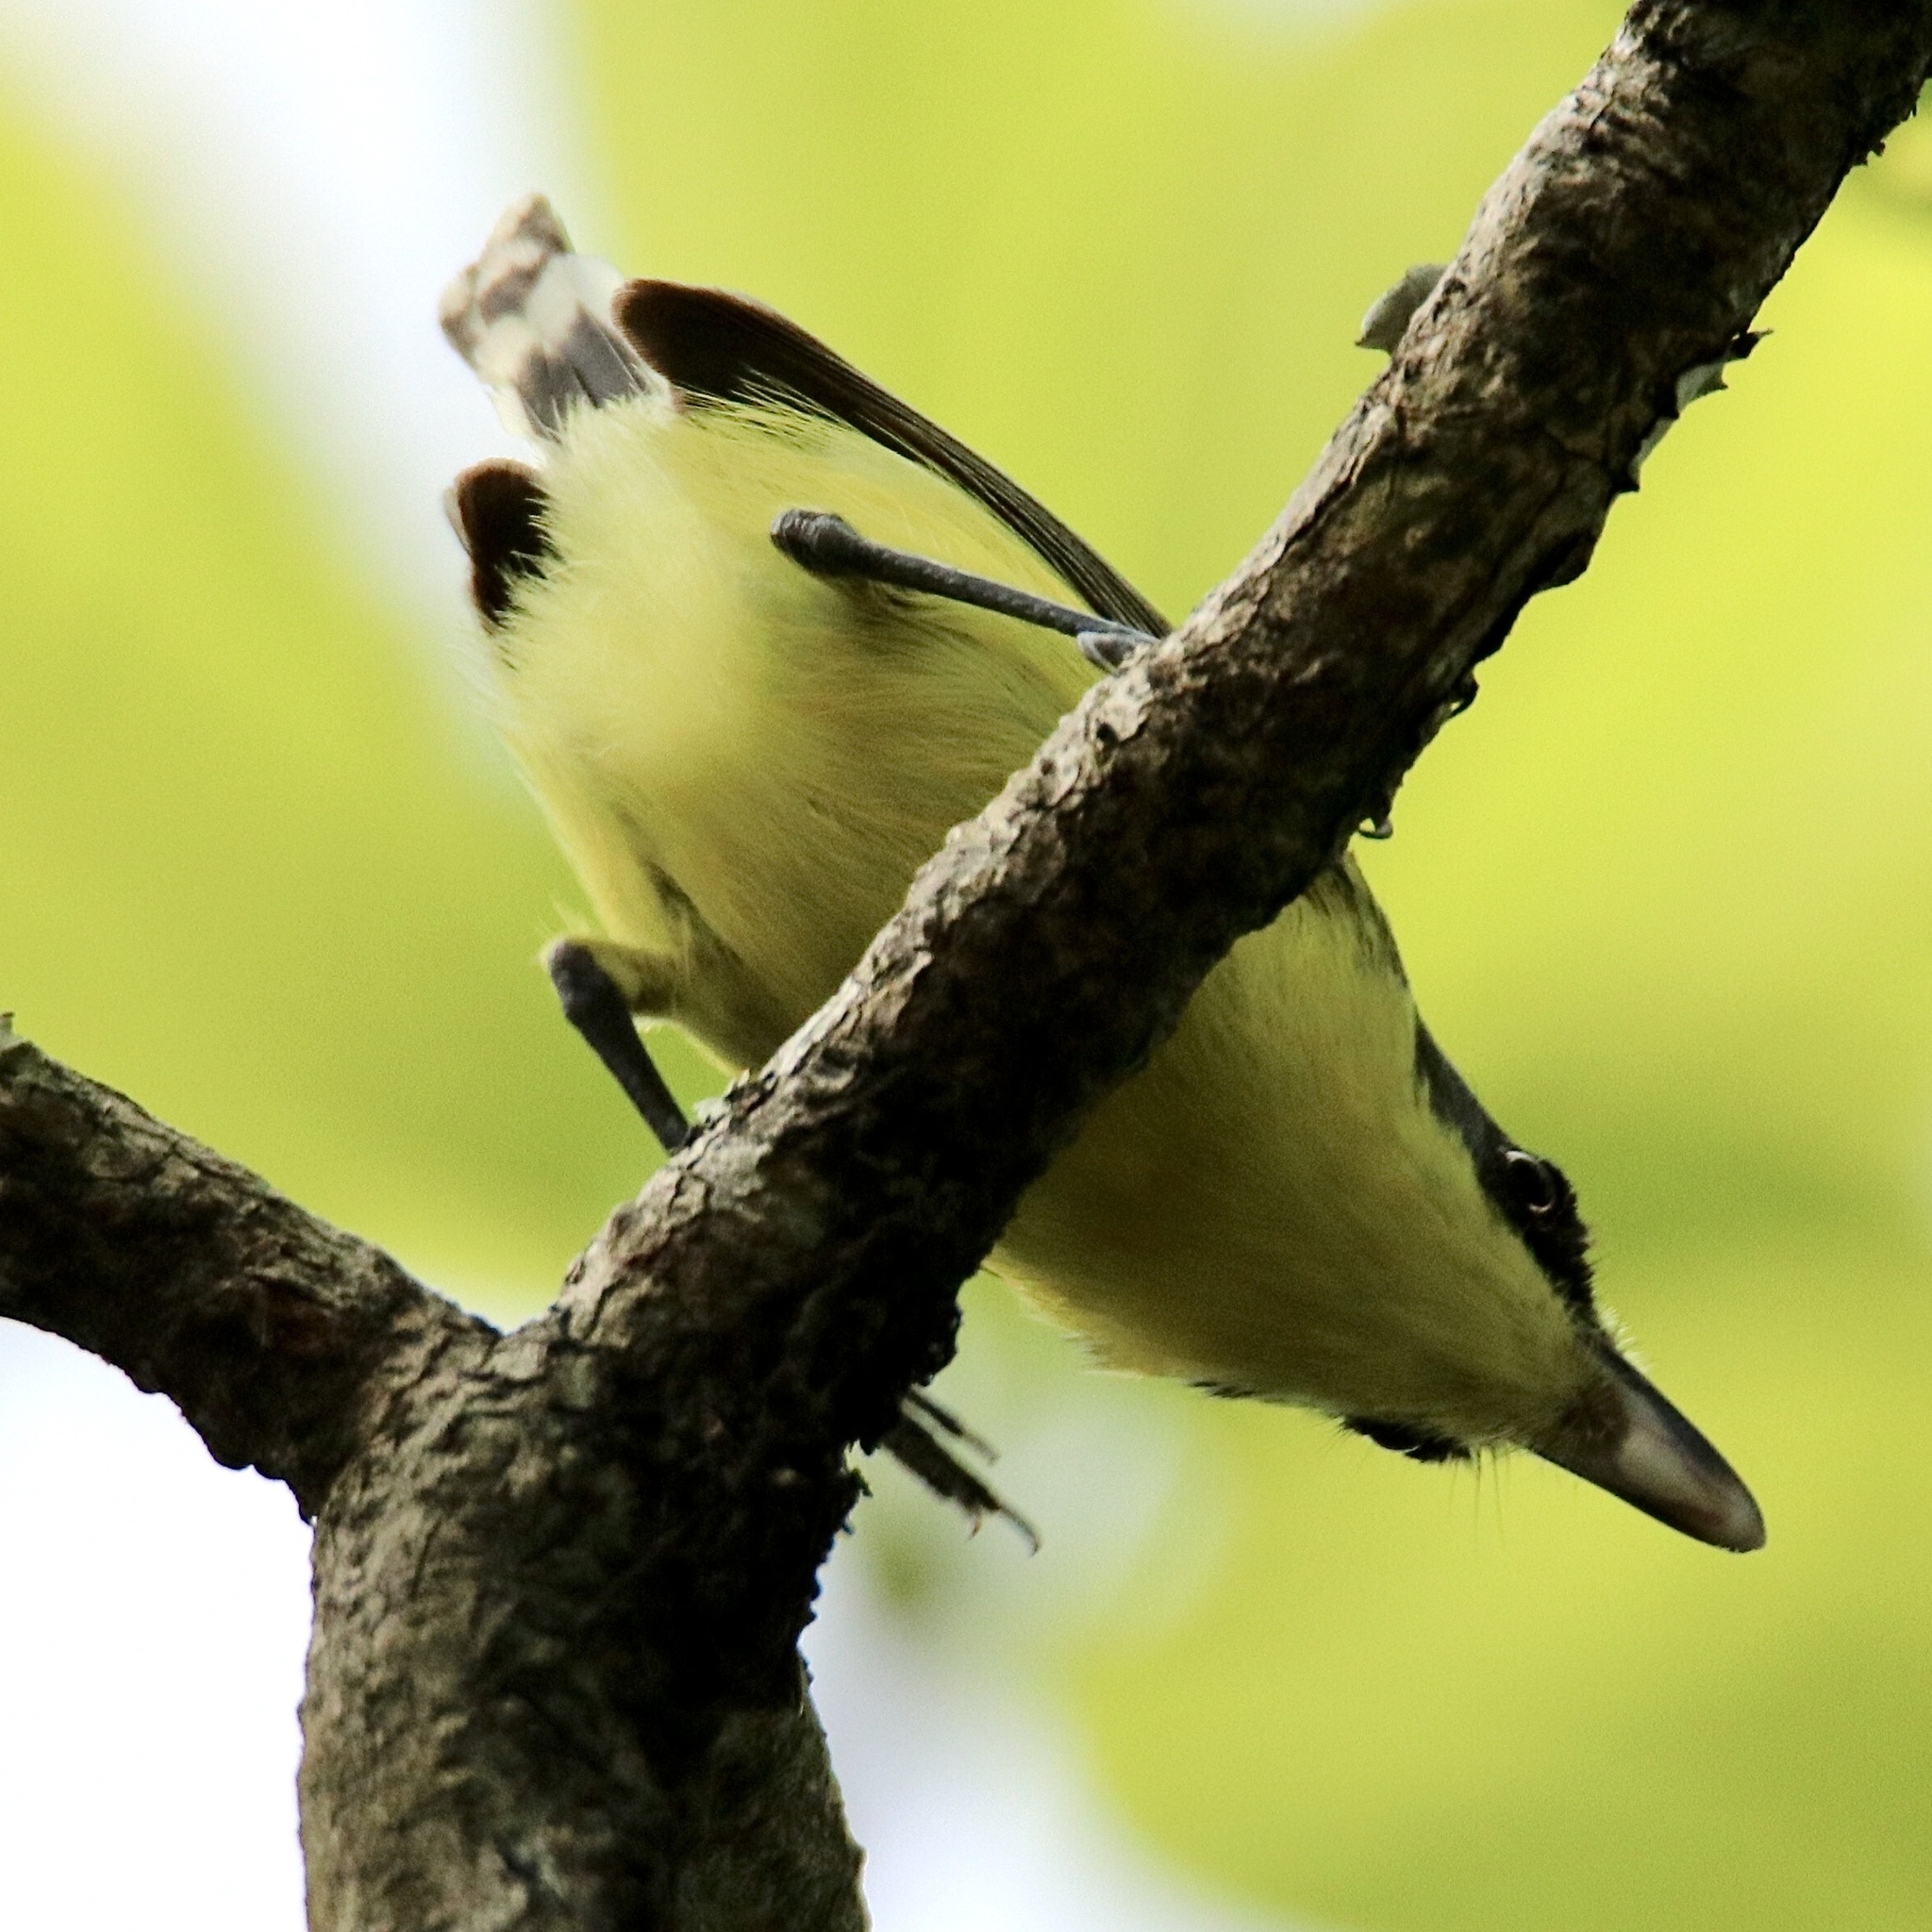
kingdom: Animalia
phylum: Chordata
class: Aves
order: Passeriformes
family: Tyrannidae
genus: Todirostrum
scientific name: Todirostrum cinereum
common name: Common tody-flycatcher
